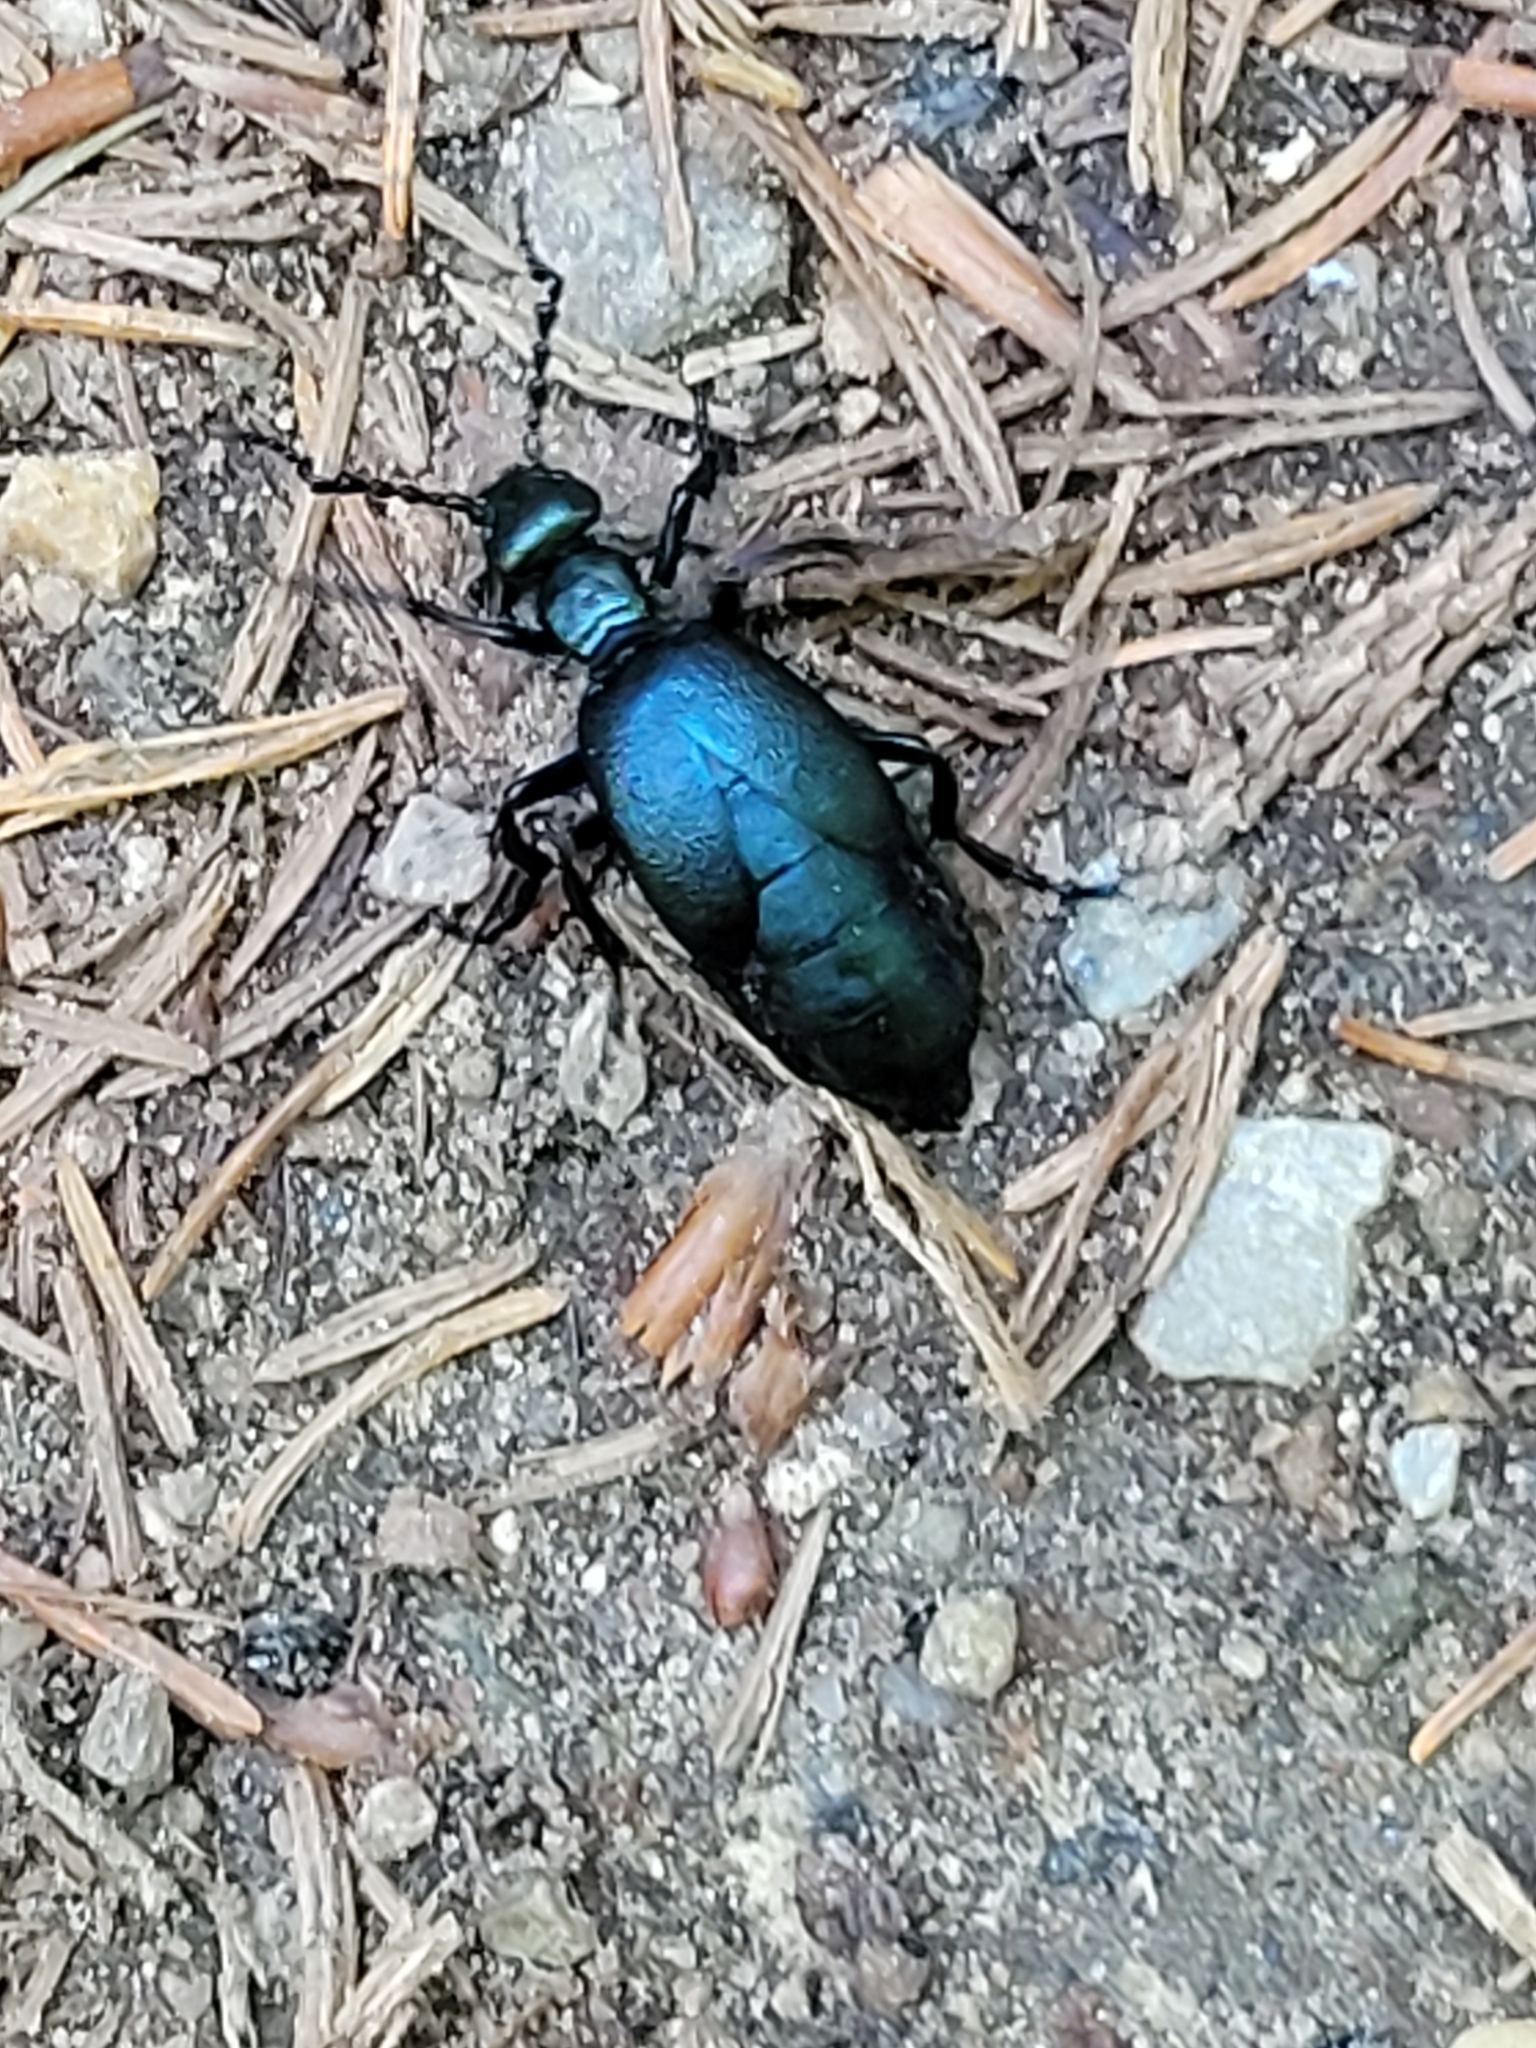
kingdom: Animalia
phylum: Arthropoda
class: Insecta
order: Coleoptera
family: Meloidae
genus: Meloe
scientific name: Meloe violaceus
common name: Violet oil-beetle
